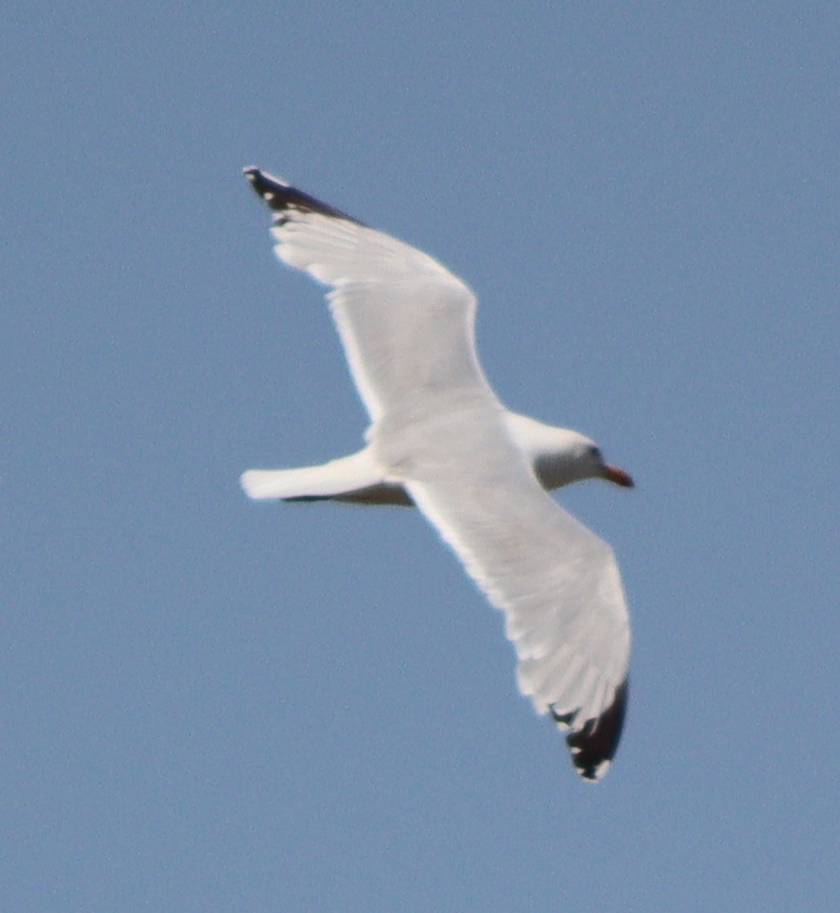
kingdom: Animalia
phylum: Chordata
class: Aves
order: Charadriiformes
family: Laridae
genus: Larus
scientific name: Larus argentatus
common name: Herring gull
